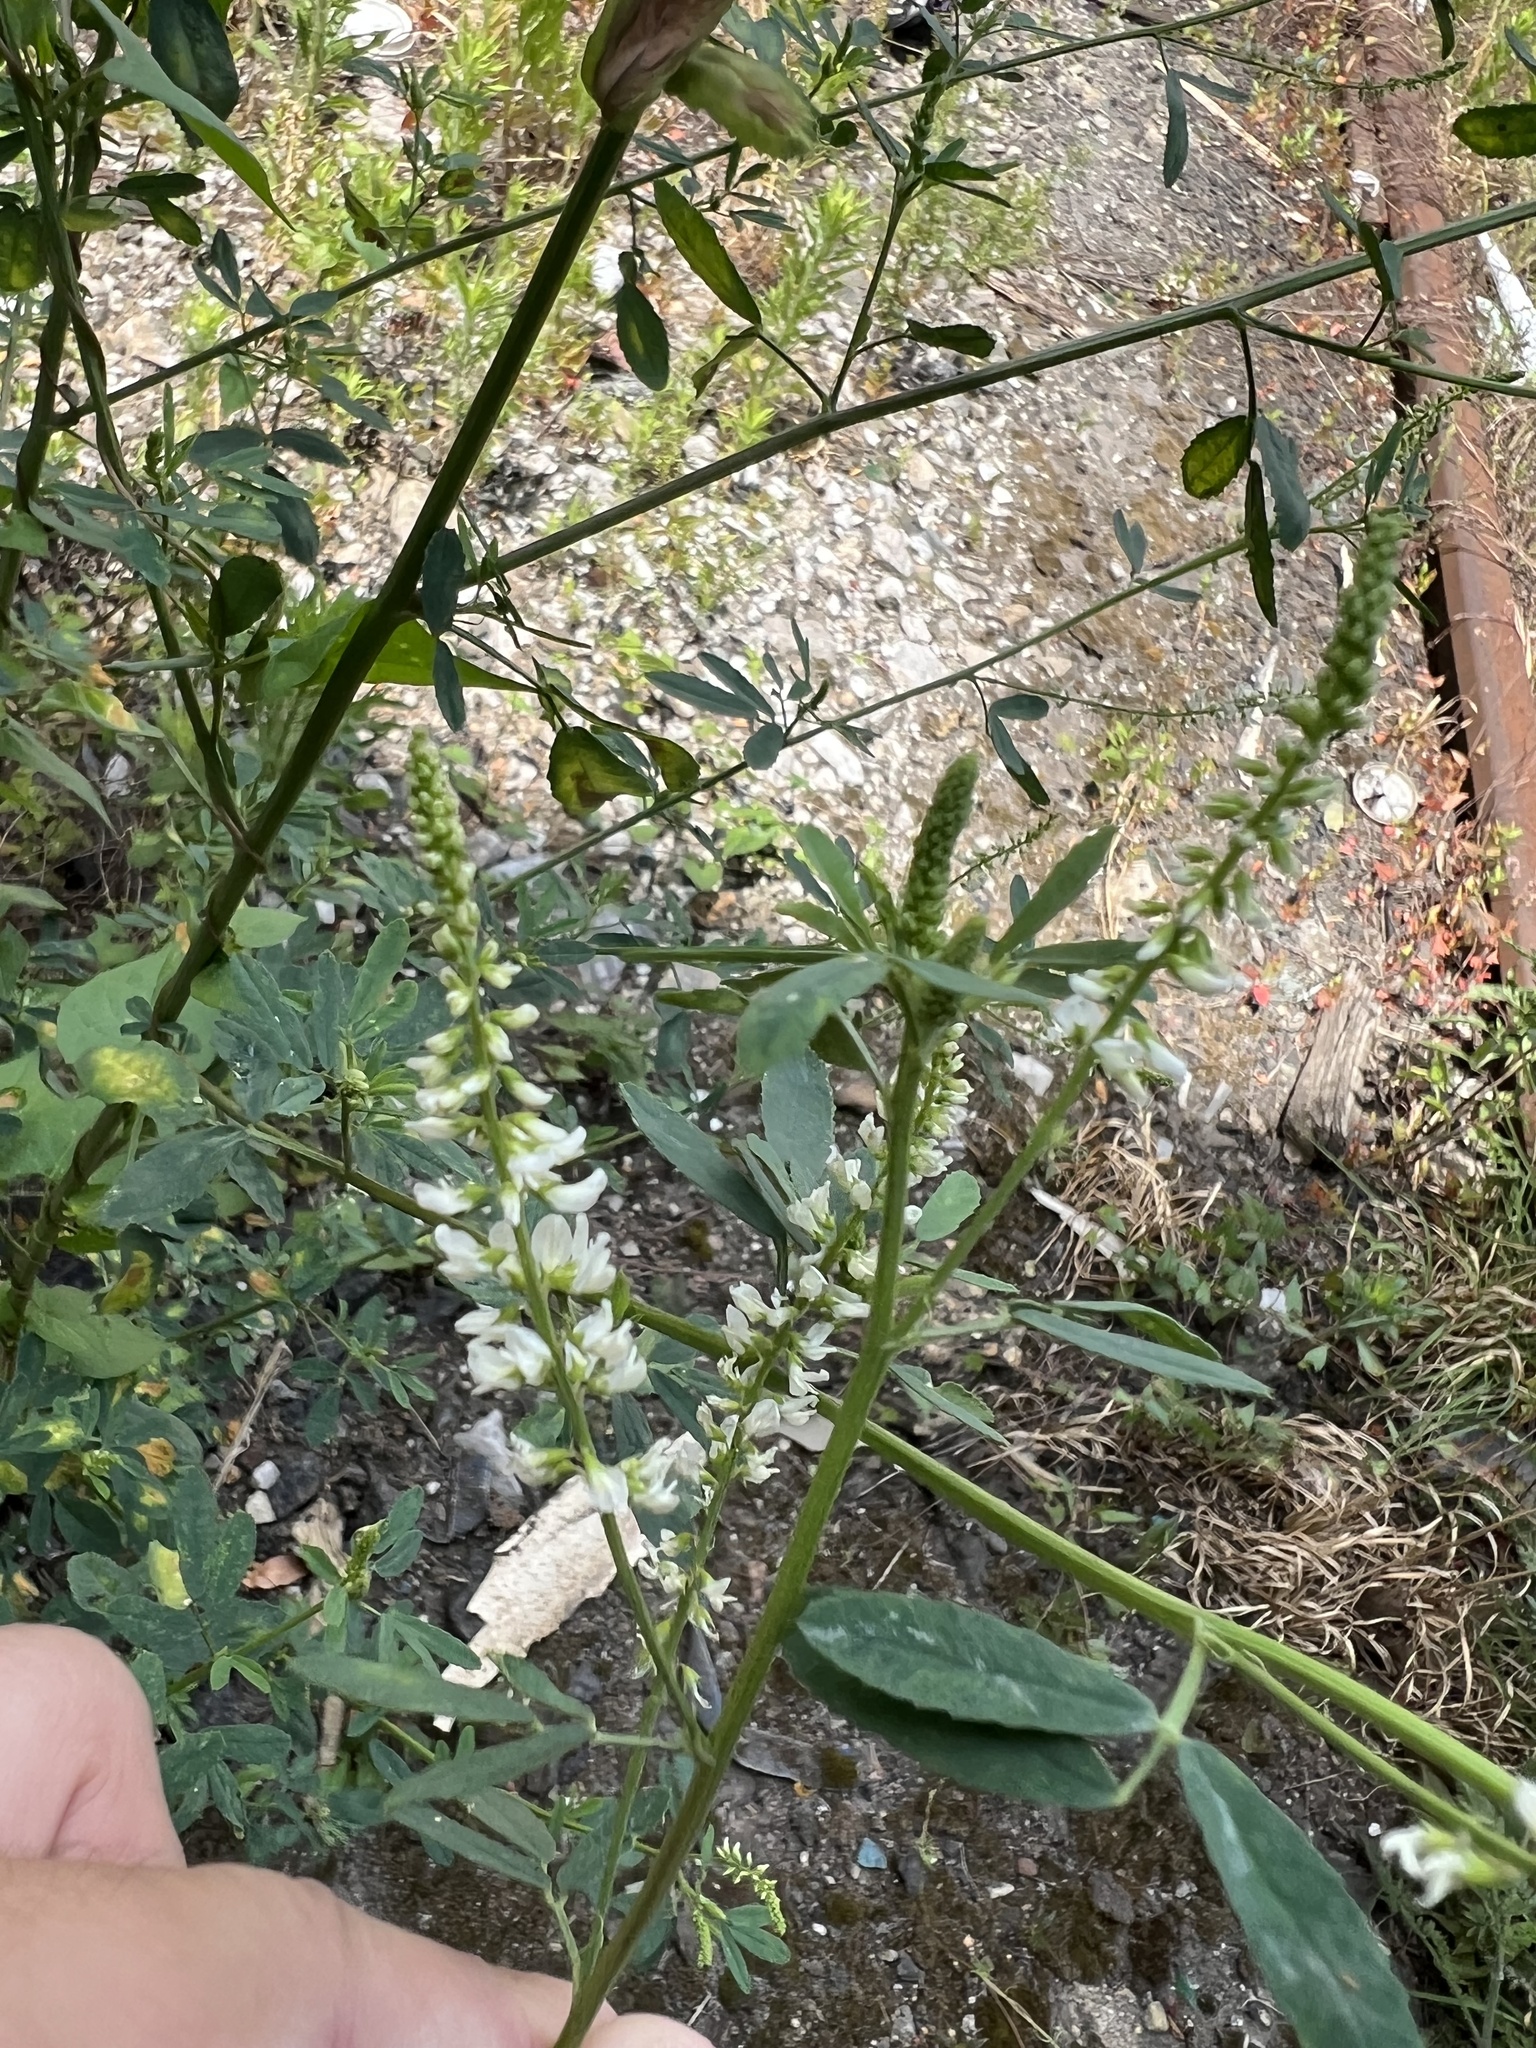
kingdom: Plantae
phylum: Tracheophyta
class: Magnoliopsida
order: Fabales
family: Fabaceae
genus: Melilotus
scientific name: Melilotus albus
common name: White melilot
